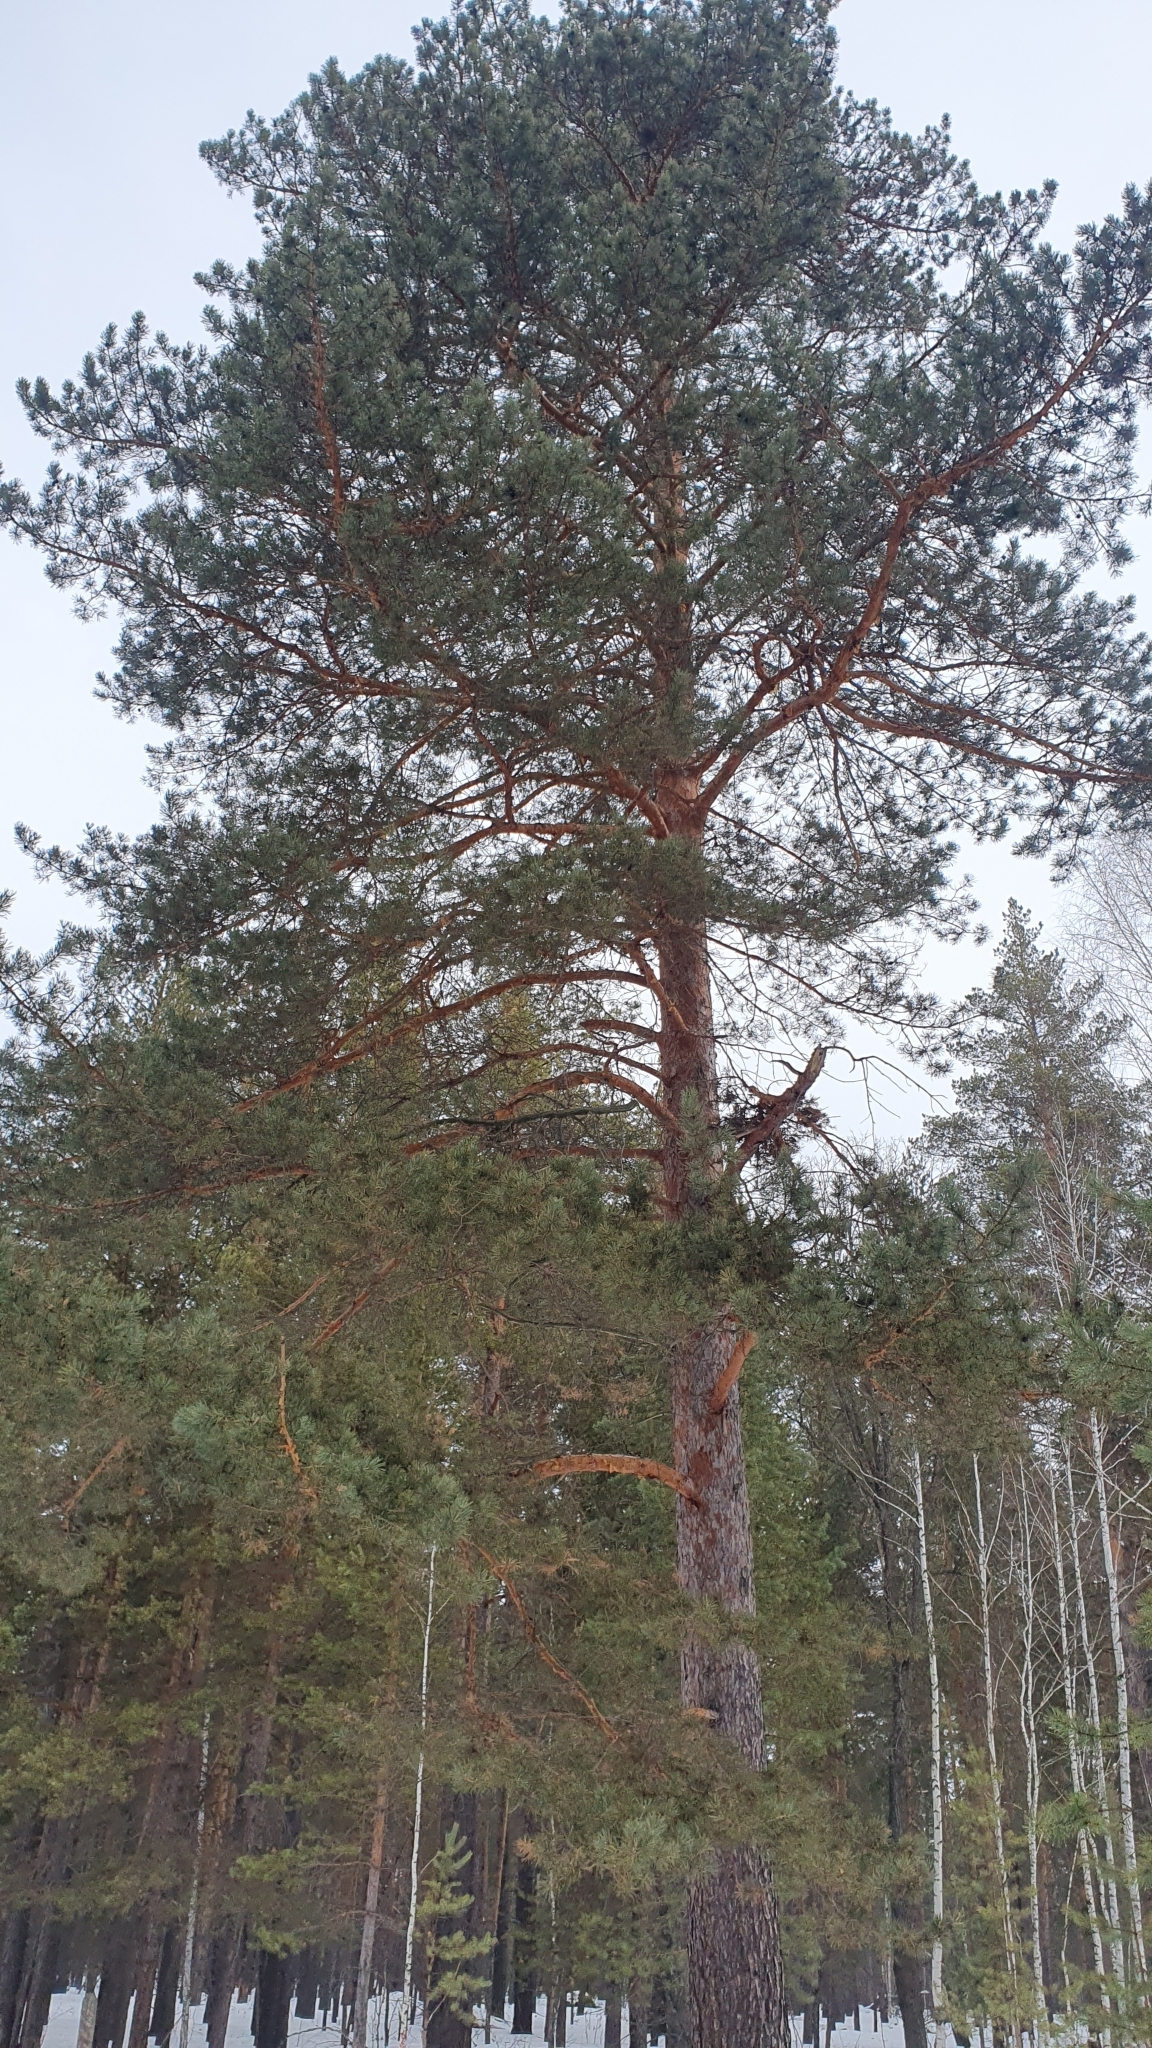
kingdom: Plantae
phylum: Tracheophyta
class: Pinopsida
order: Pinales
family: Pinaceae
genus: Pinus
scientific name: Pinus sylvestris
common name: Scots pine
